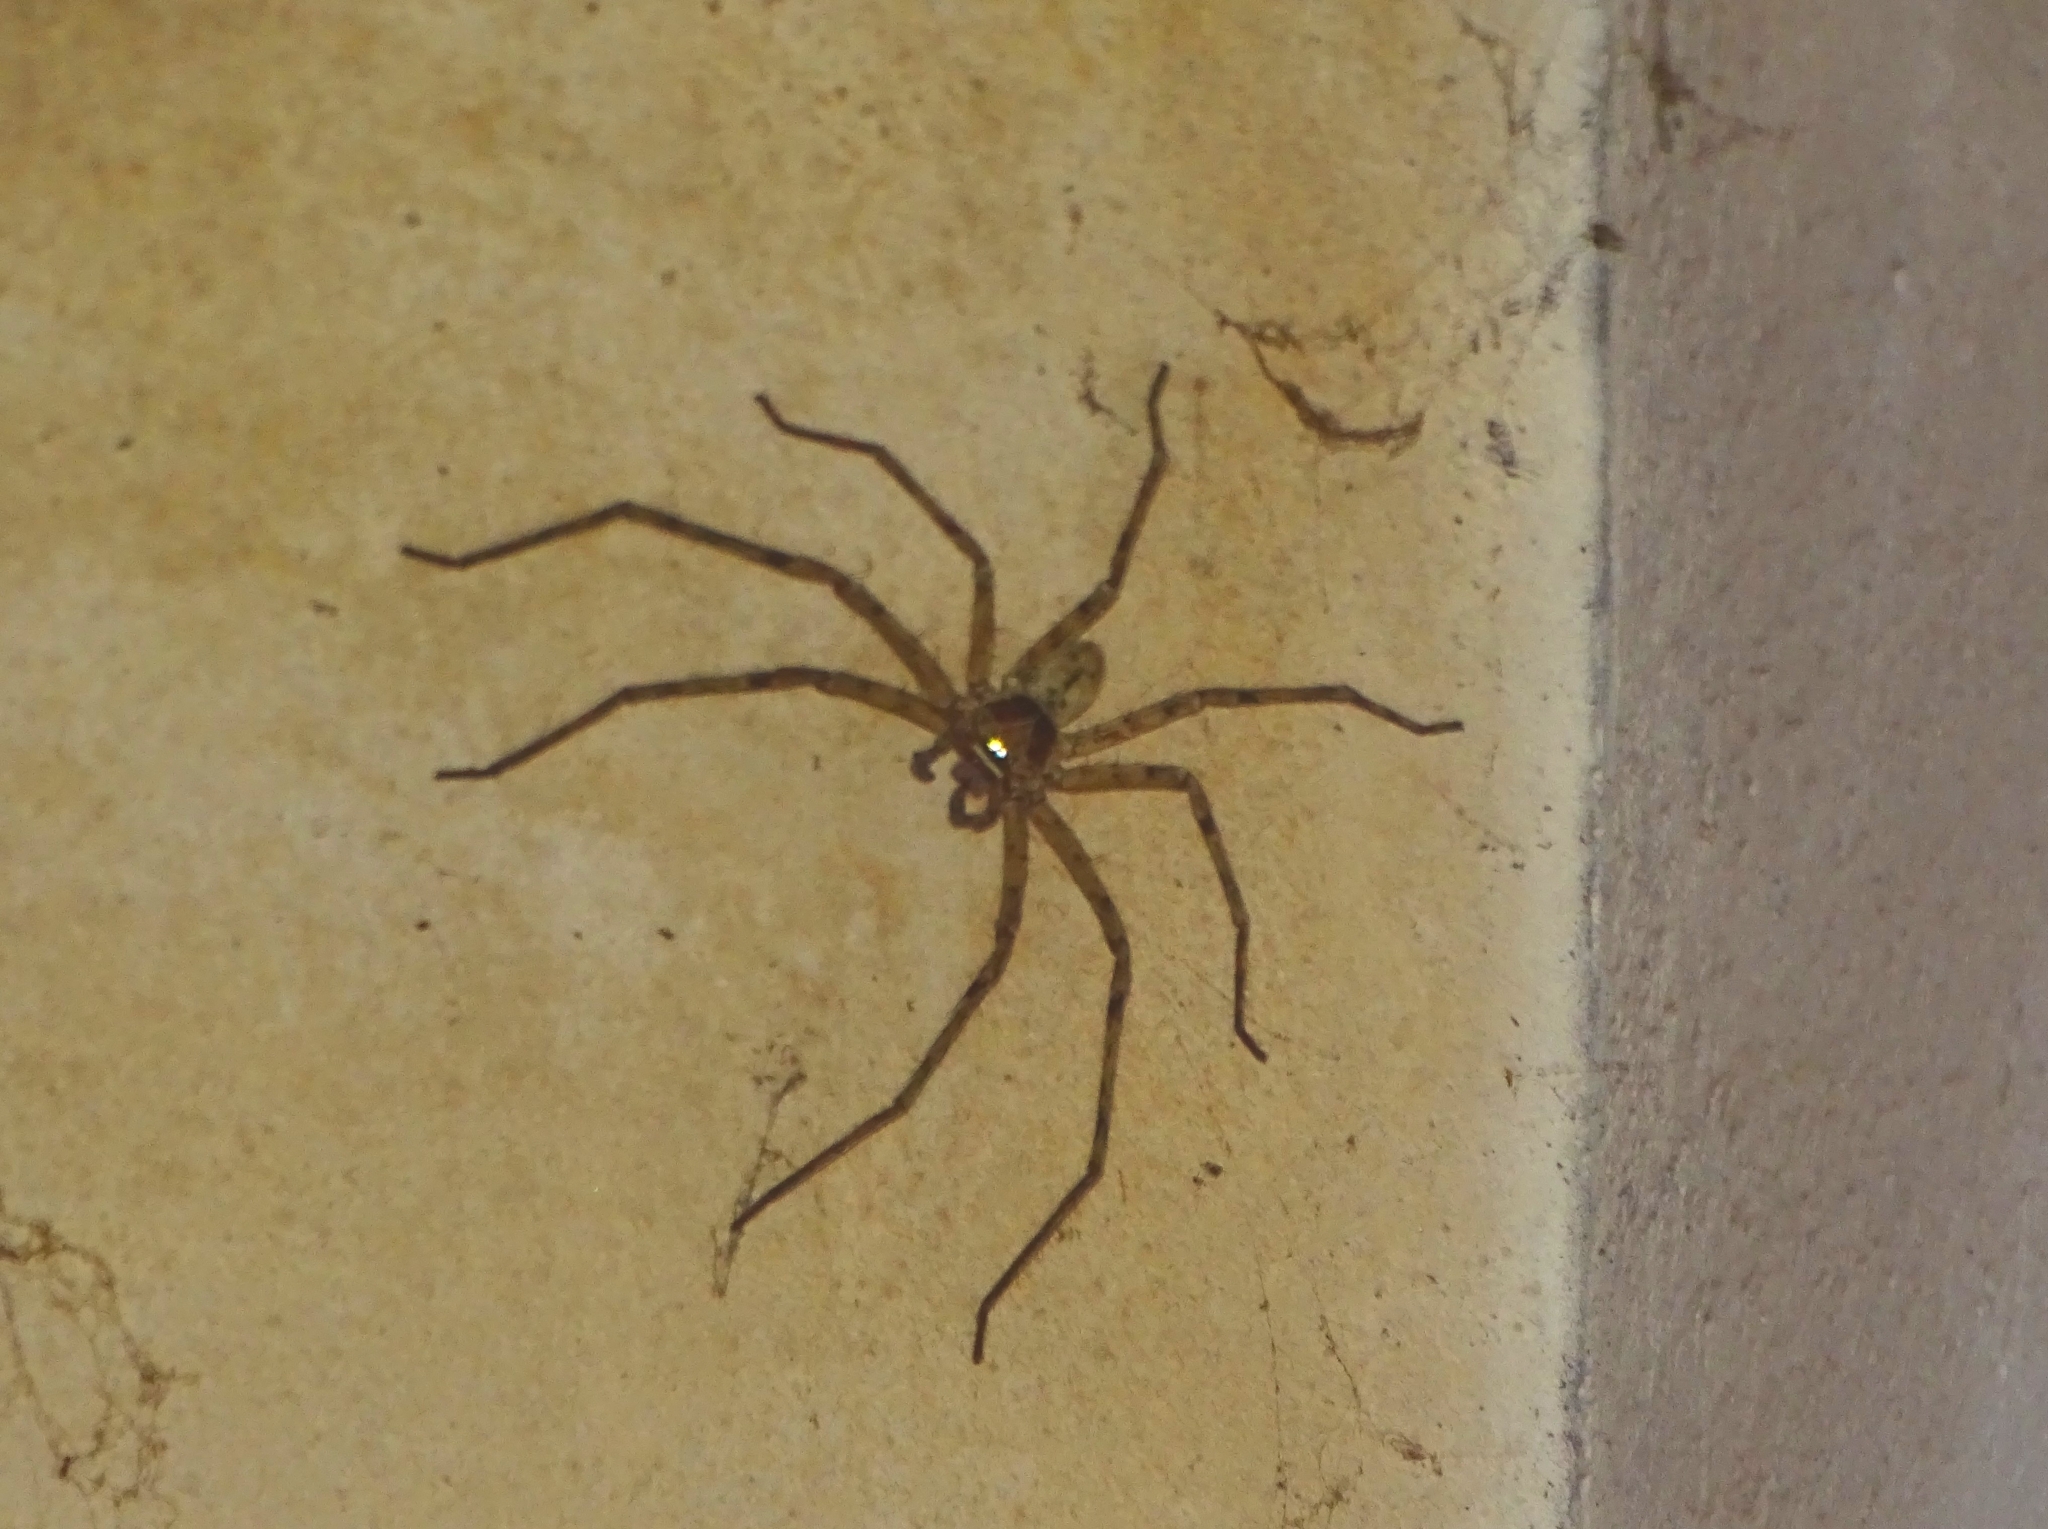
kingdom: Animalia
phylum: Arthropoda
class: Arachnida
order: Araneae
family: Sparassidae
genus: Heteropoda
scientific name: Heteropoda venatoria
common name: Huntsman spider
